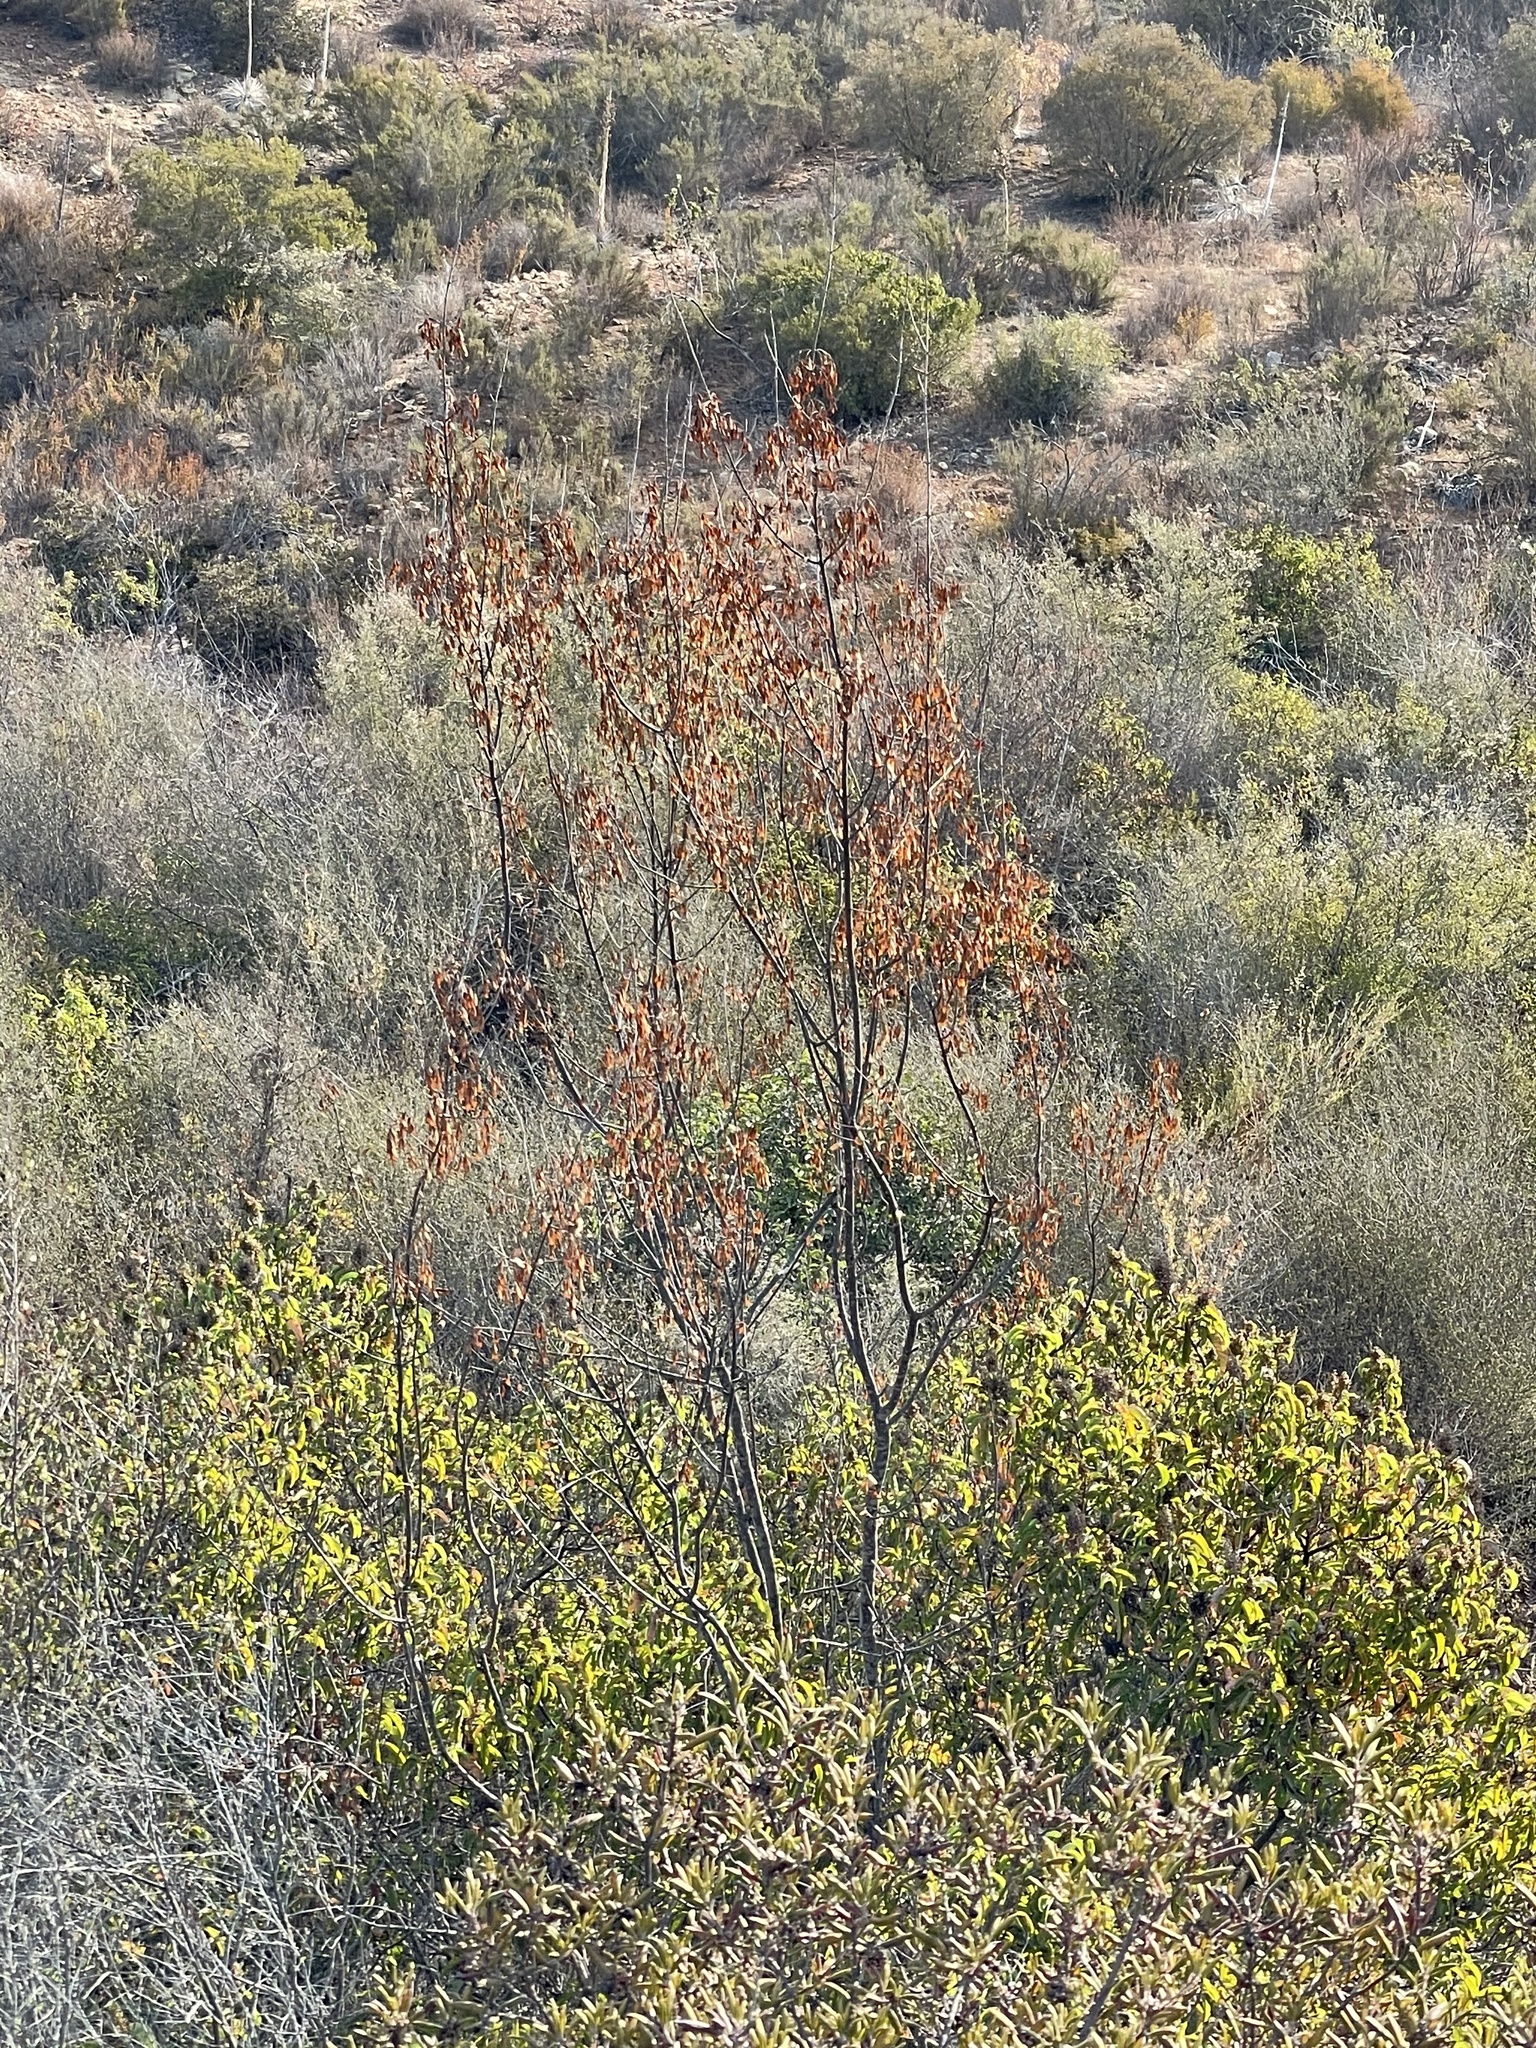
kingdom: Plantae
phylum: Tracheophyta
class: Magnoliopsida
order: Lamiales
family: Oleaceae
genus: Fraxinus
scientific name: Fraxinus dipetala
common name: California ash
